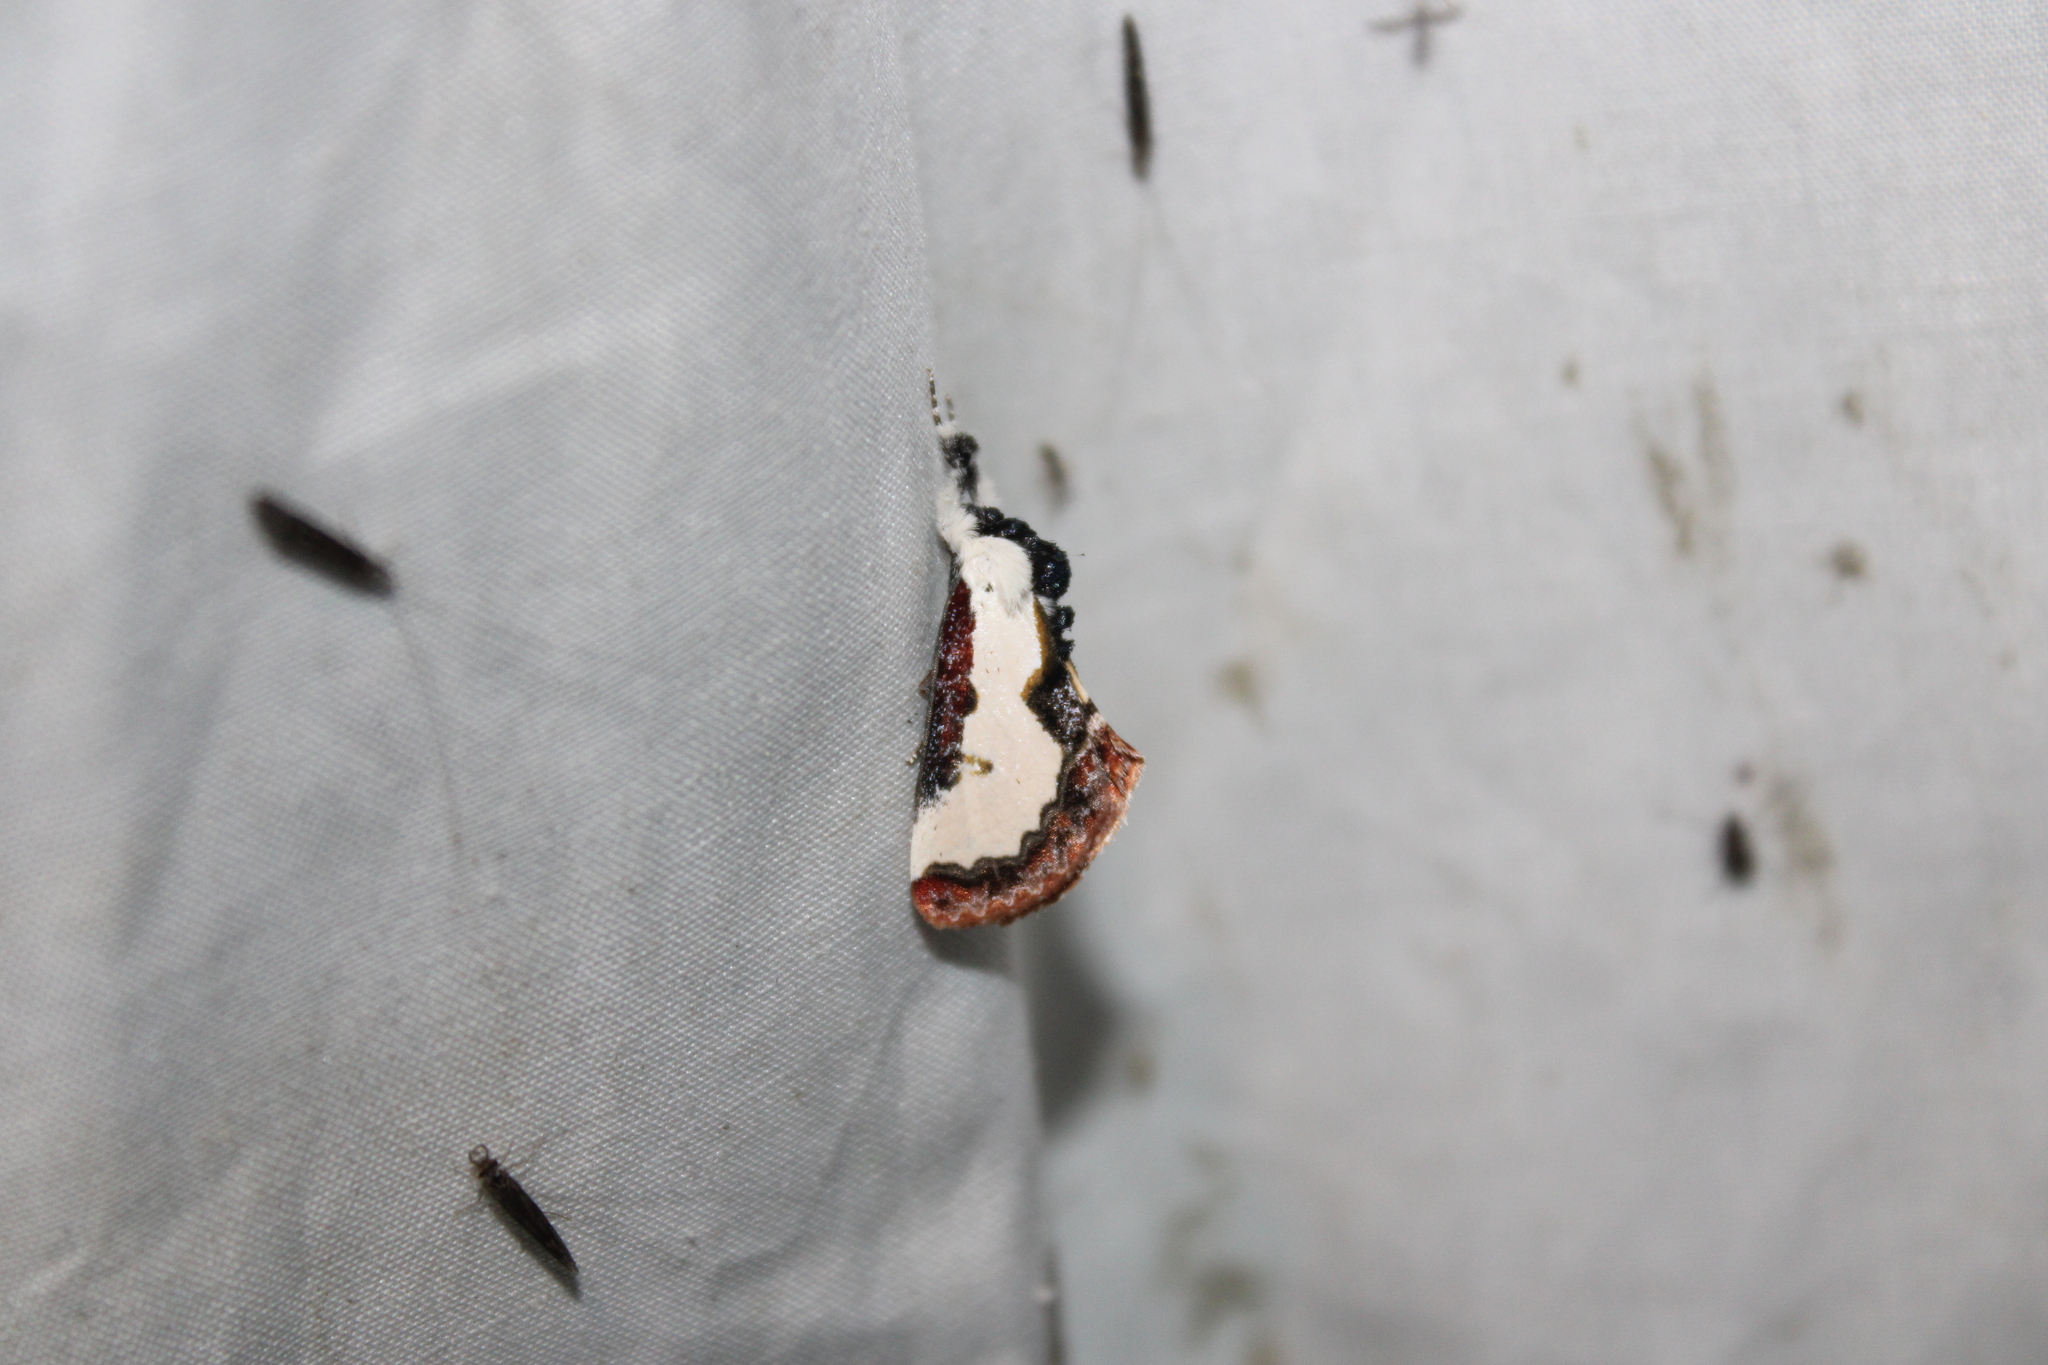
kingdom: Animalia
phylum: Arthropoda
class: Insecta
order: Lepidoptera
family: Noctuidae
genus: Eudryas
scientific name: Eudryas unio
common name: Pearly wood-nymph
